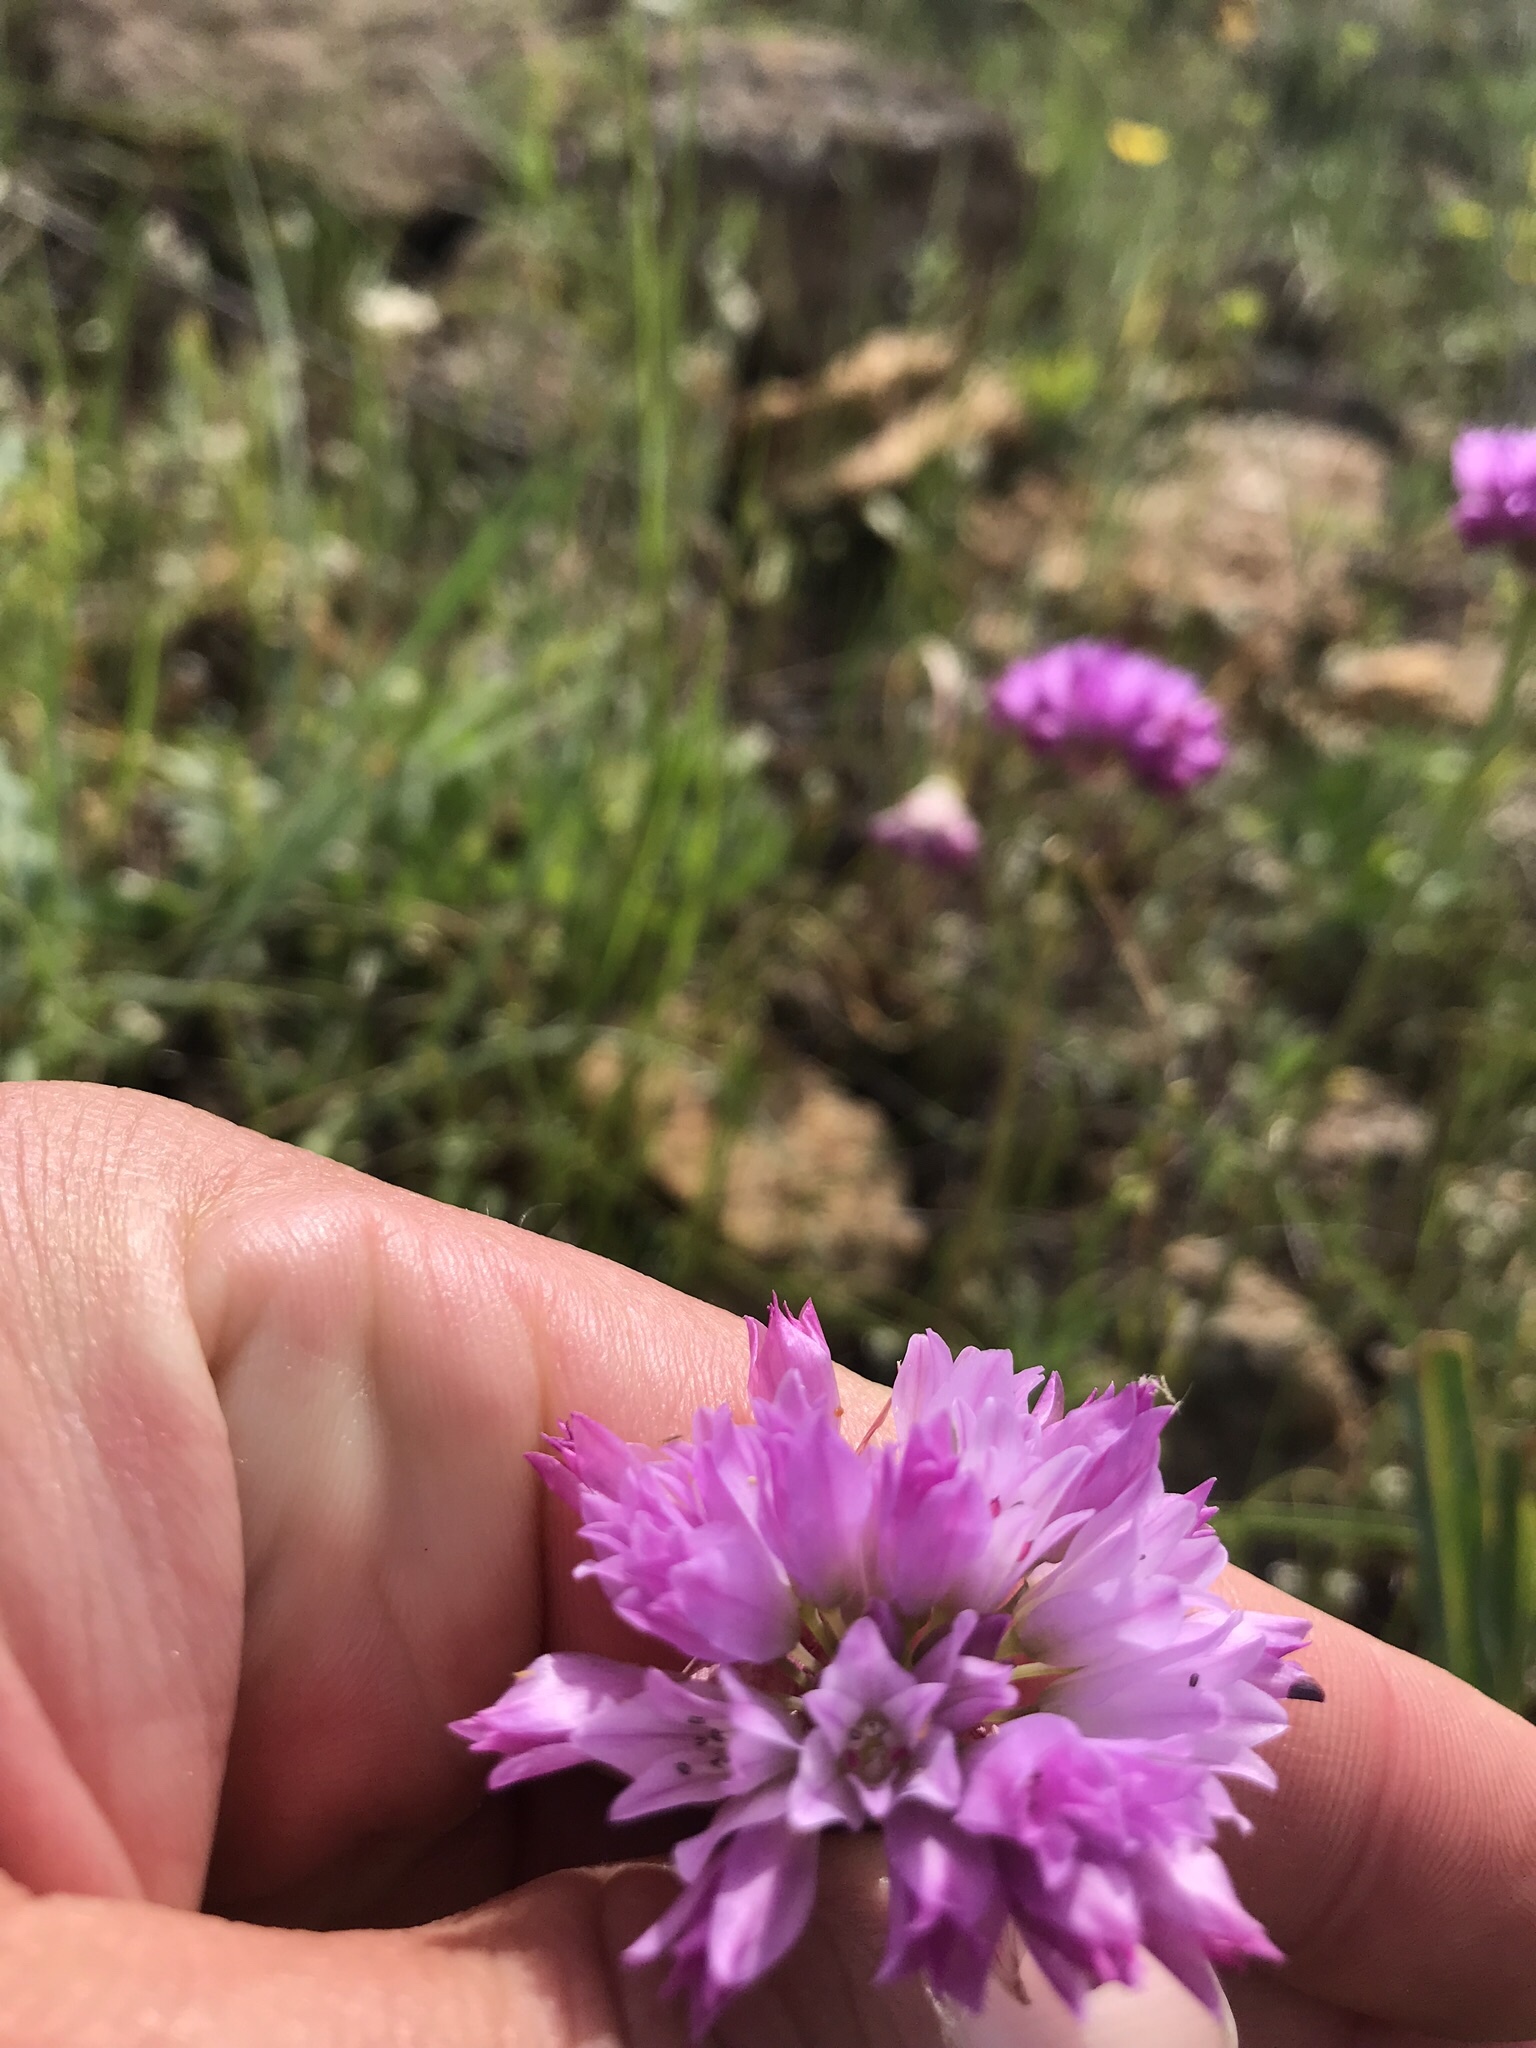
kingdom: Plantae
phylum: Tracheophyta
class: Liliopsida
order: Asparagales
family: Amaryllidaceae
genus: Allium
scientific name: Allium serra
